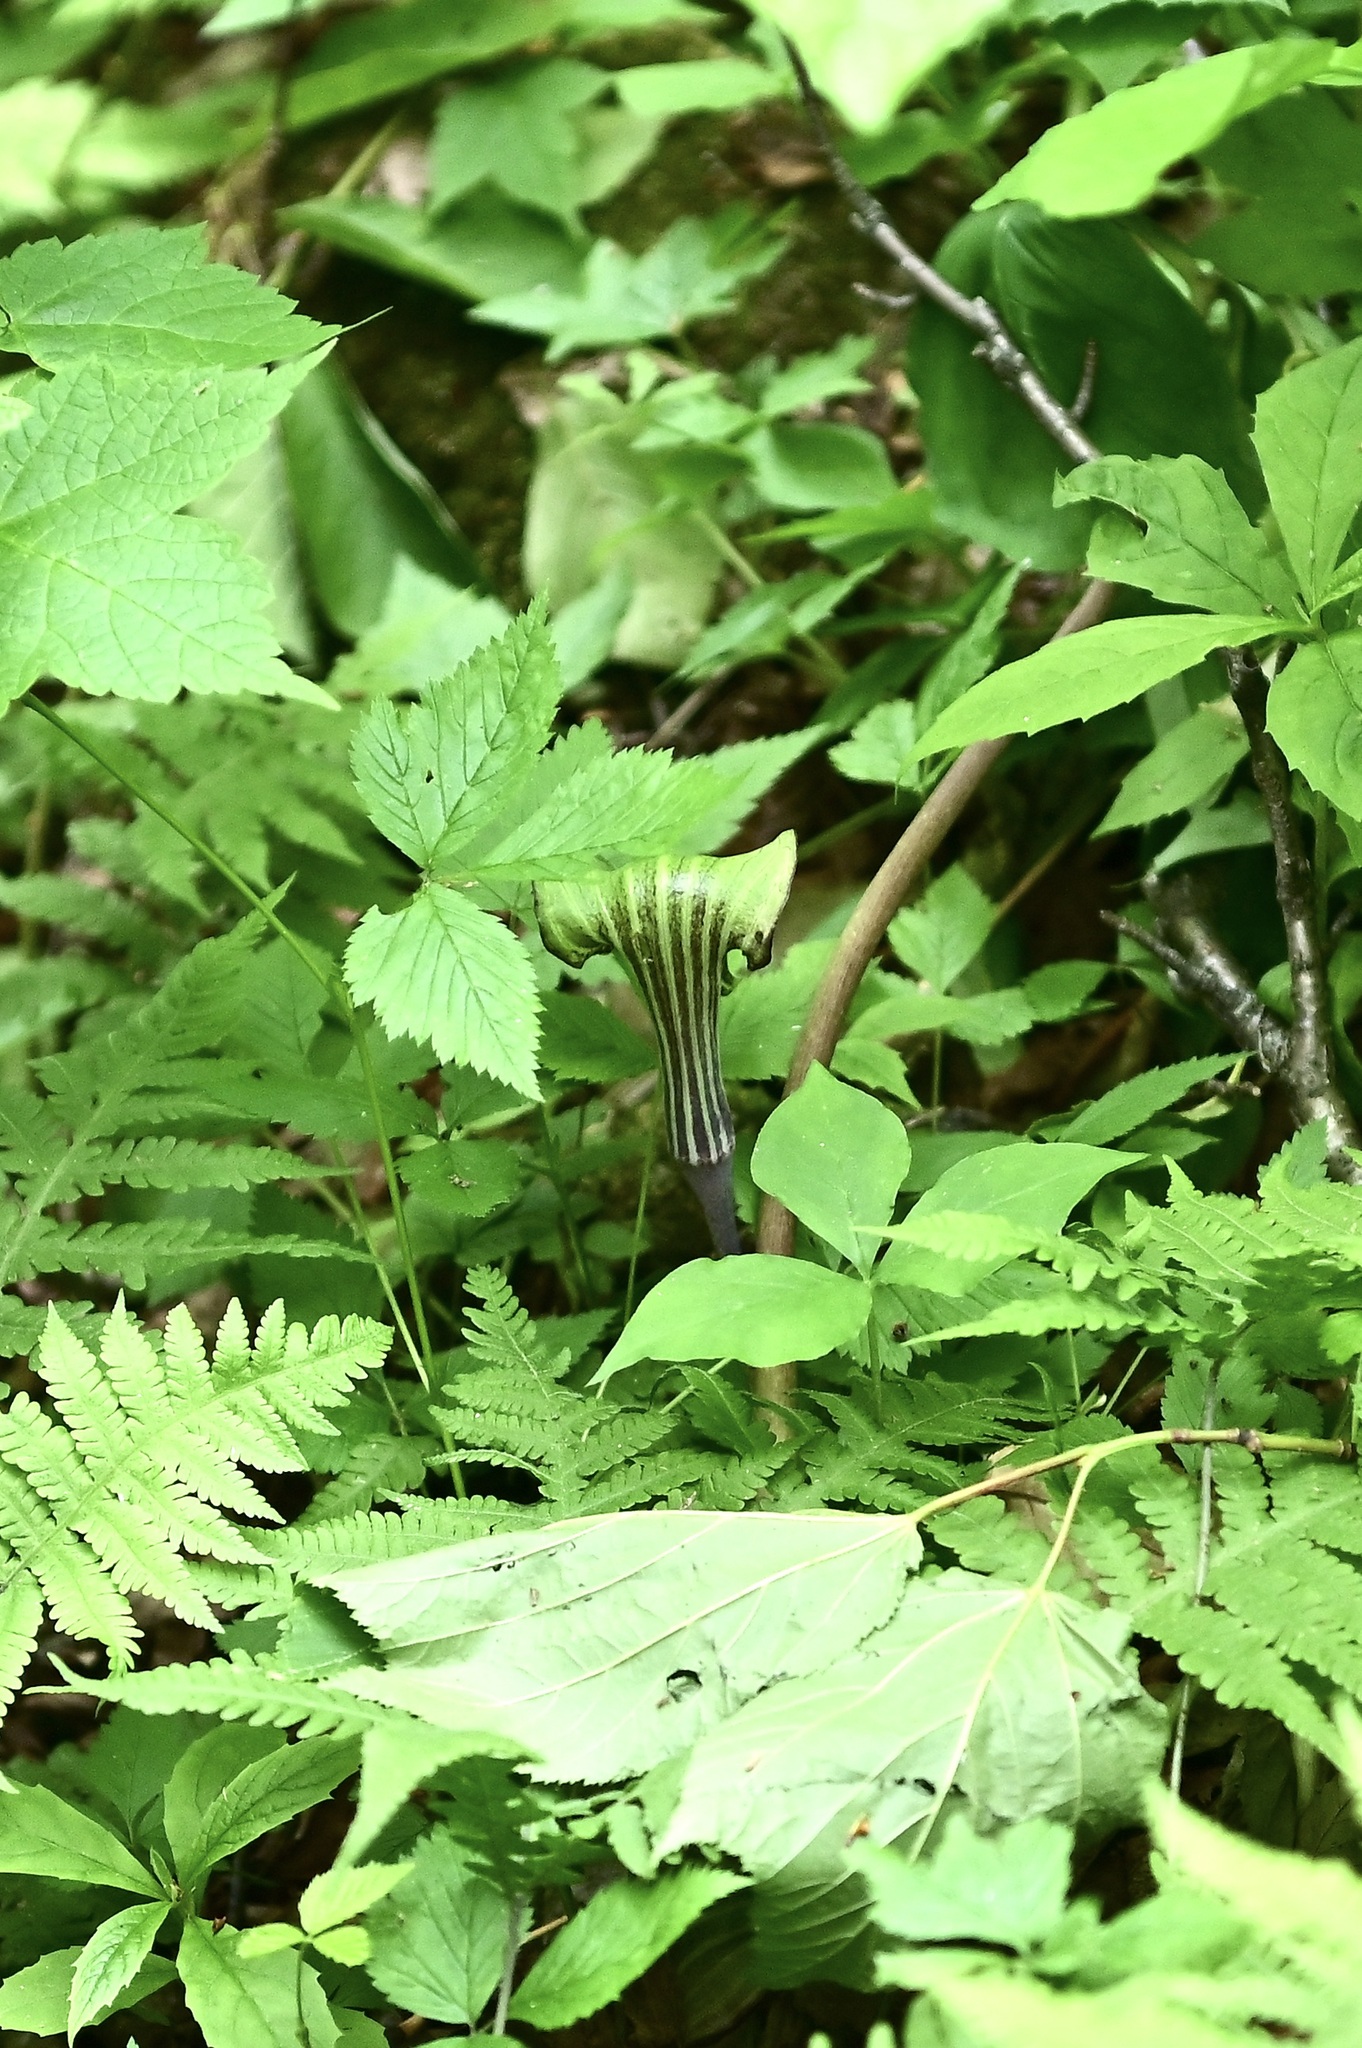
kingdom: Plantae
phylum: Tracheophyta
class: Liliopsida
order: Alismatales
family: Araceae
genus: Arisaema
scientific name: Arisaema triphyllum
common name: Jack-in-the-pulpit
